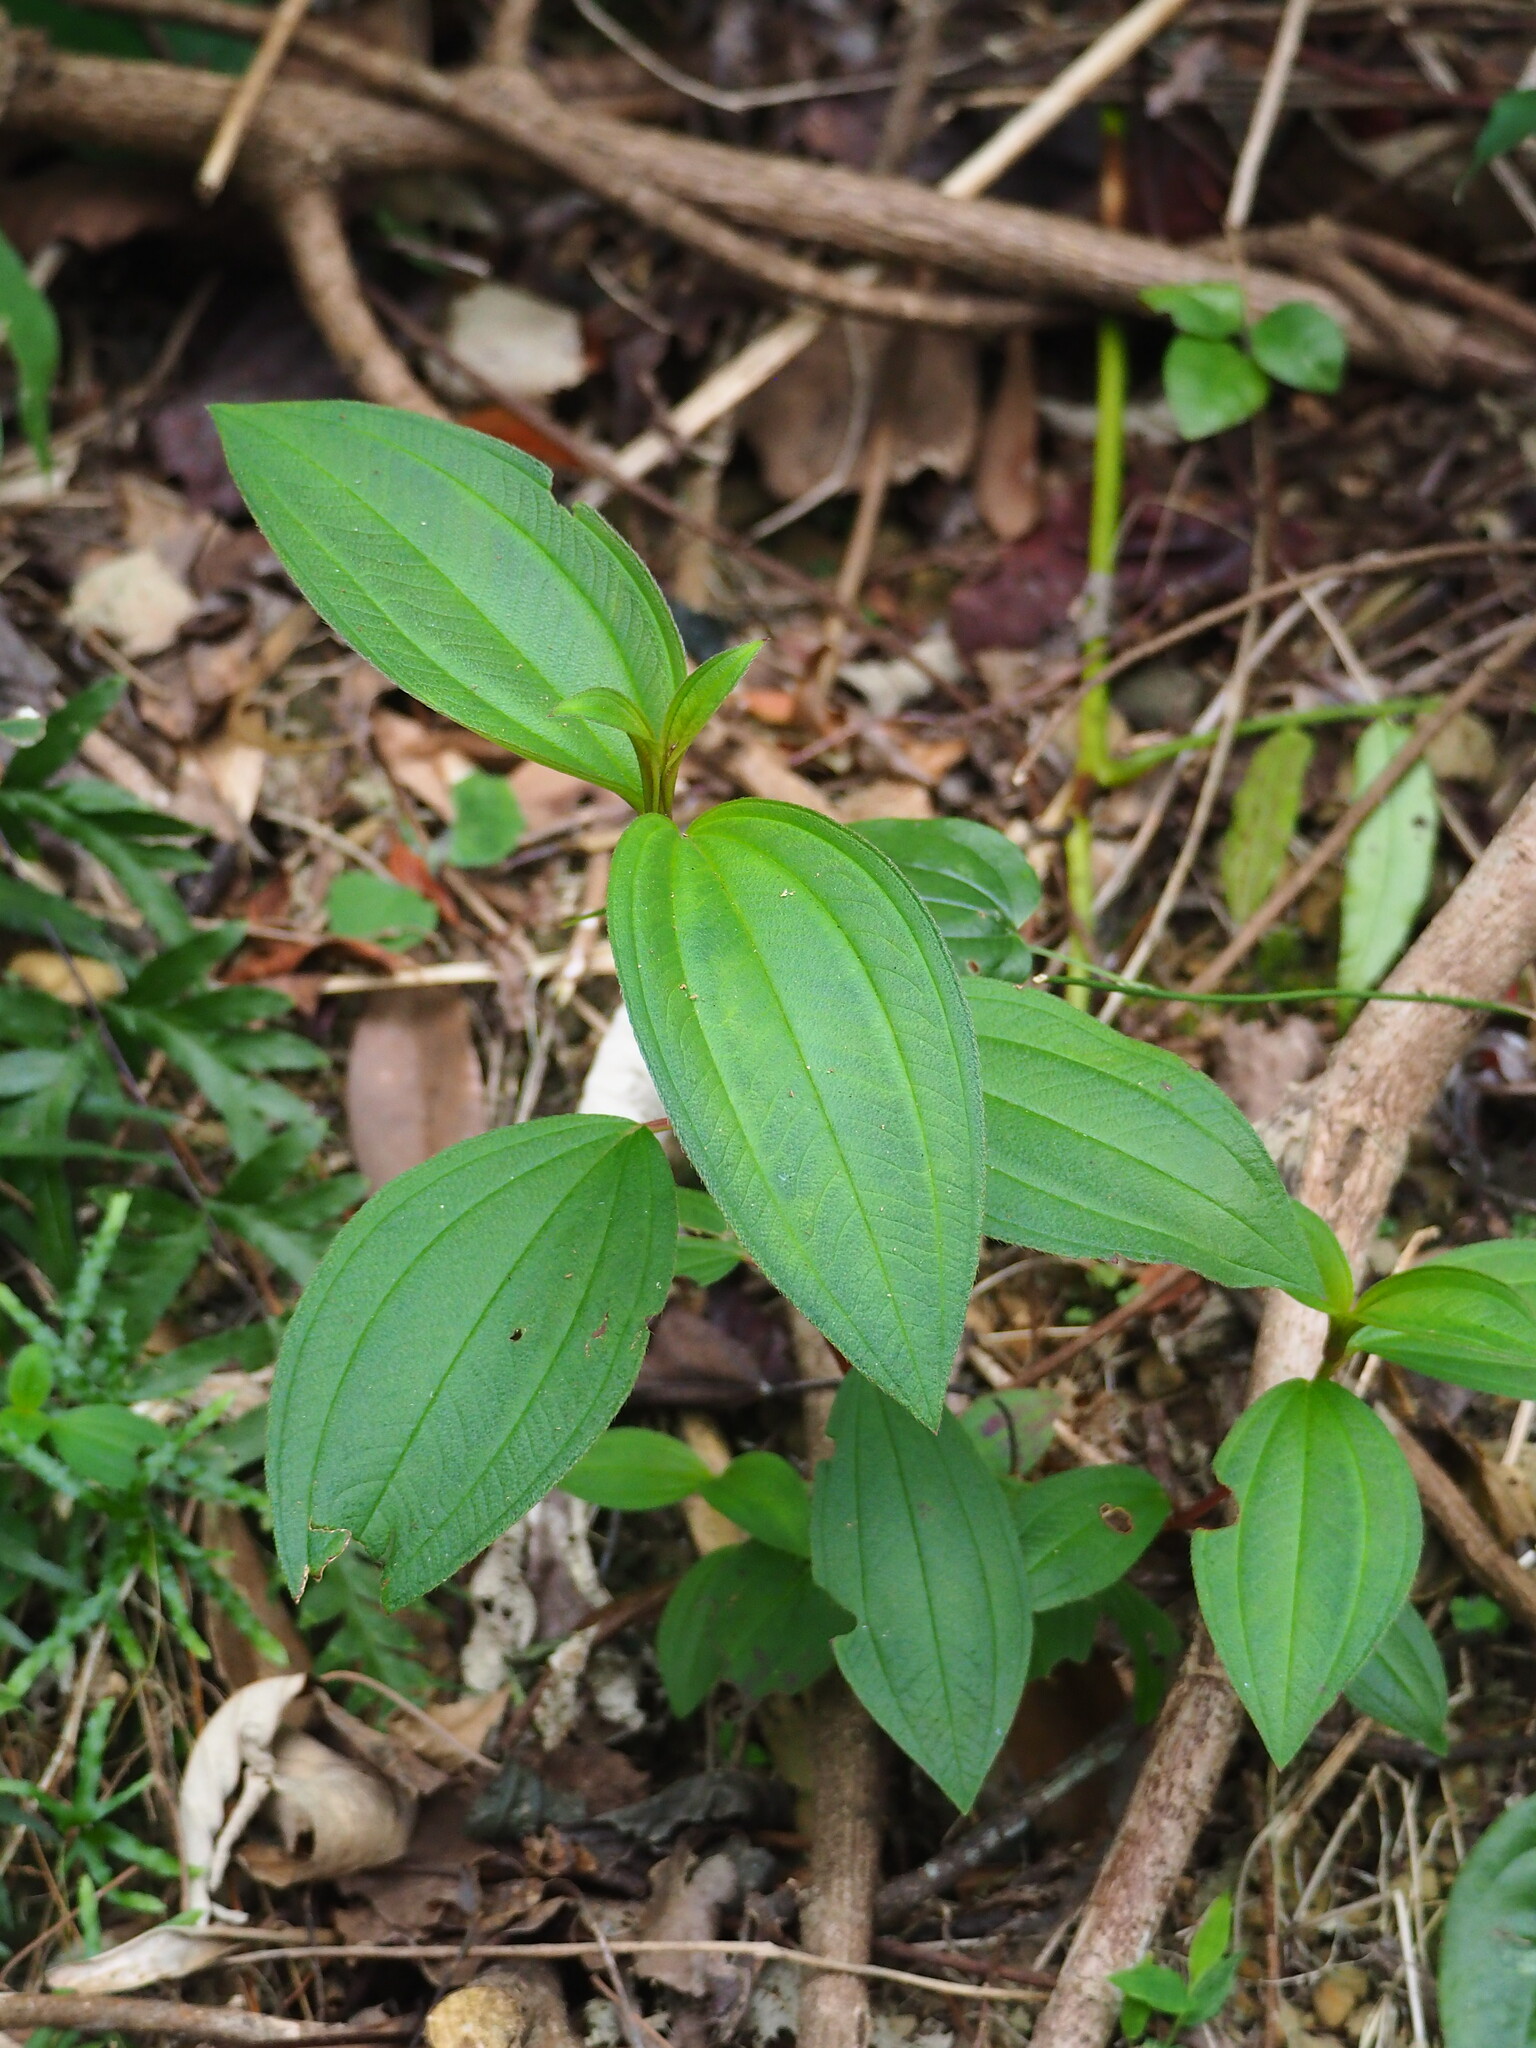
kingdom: Plantae
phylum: Tracheophyta
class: Magnoliopsida
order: Myrtales
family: Melastomataceae
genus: Melastoma
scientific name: Melastoma malabathricum
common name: Indian-rhododendron
